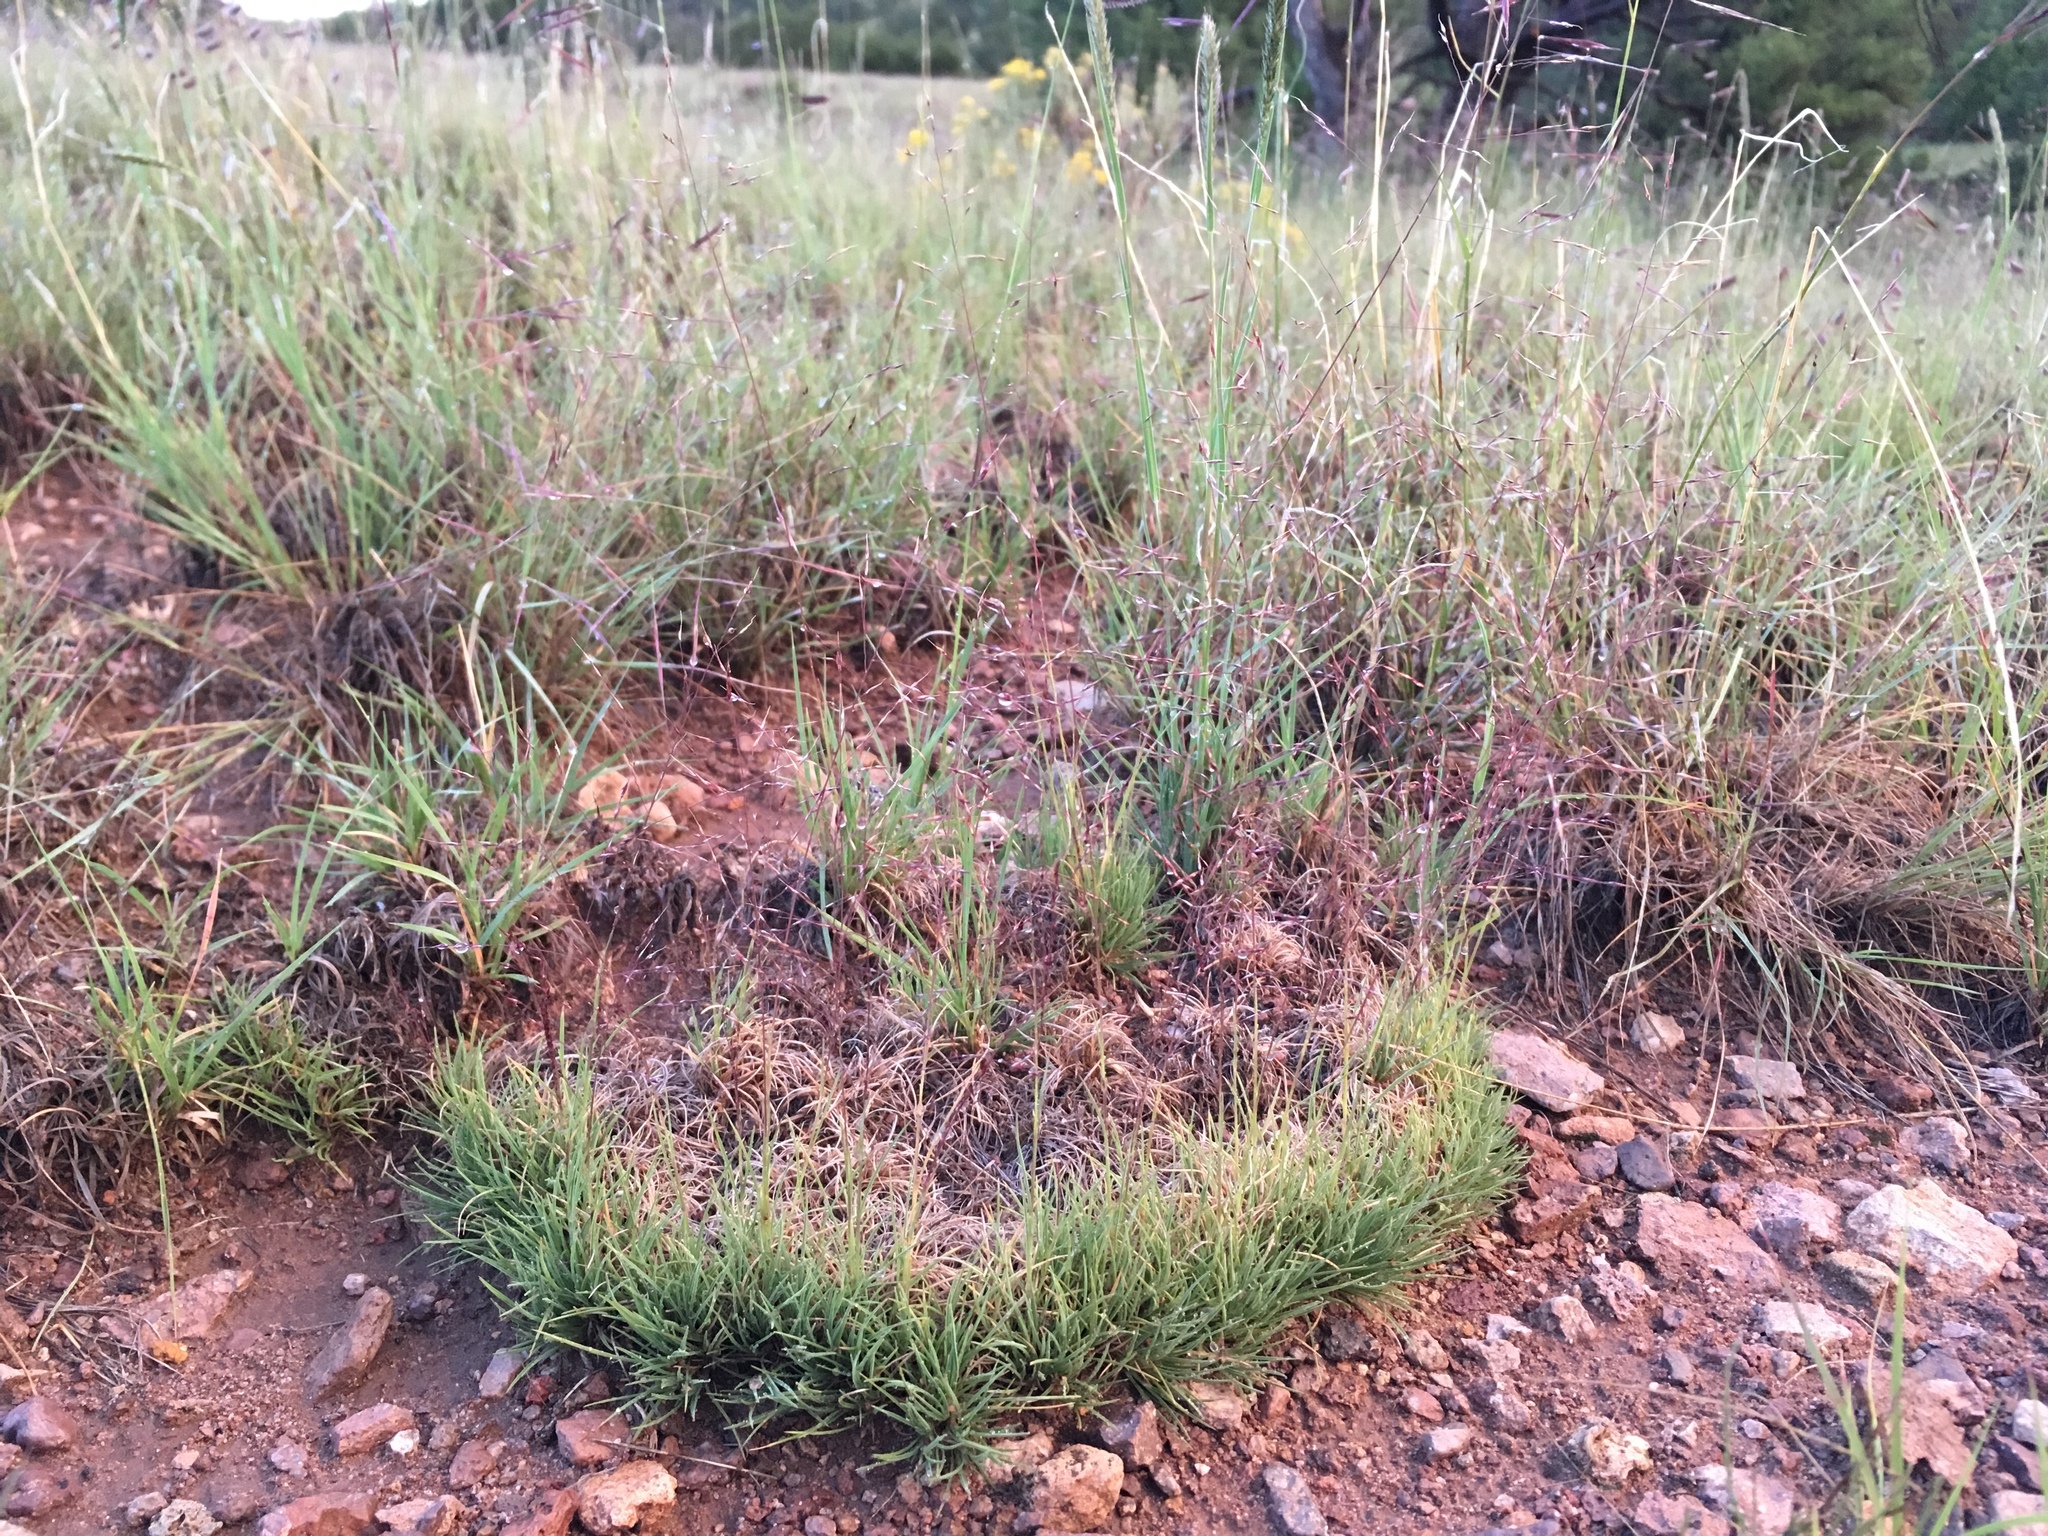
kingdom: Plantae
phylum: Tracheophyta
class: Liliopsida
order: Poales
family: Poaceae
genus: Muhlenbergia
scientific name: Muhlenbergia torreyi
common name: Ring grass
